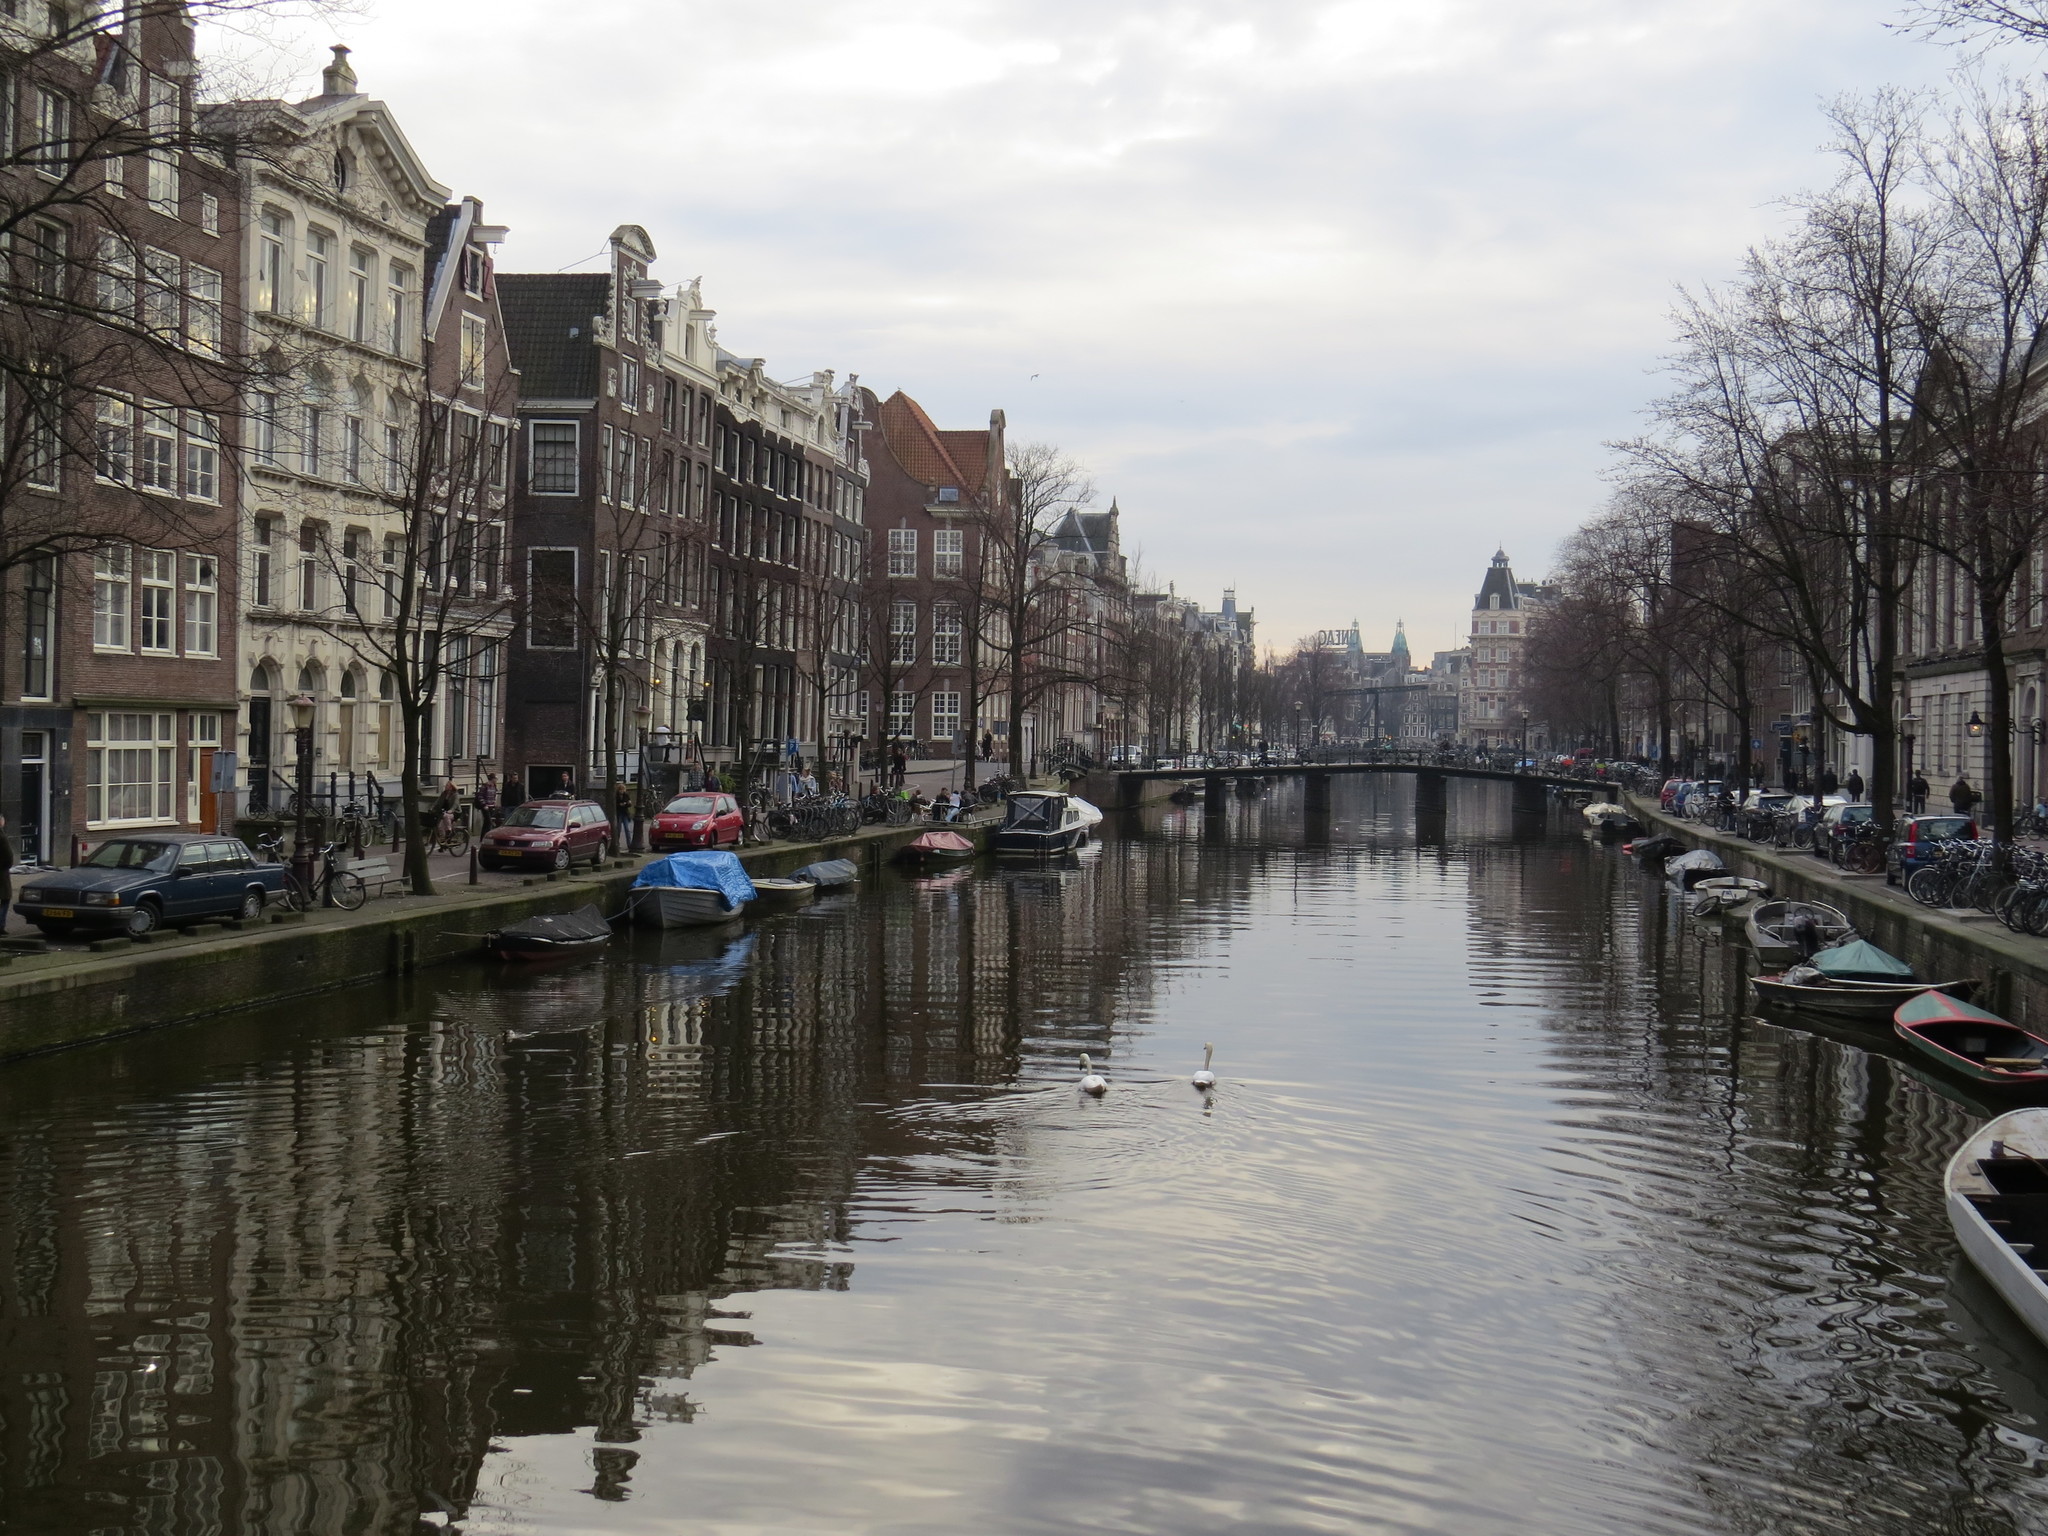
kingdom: Animalia
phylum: Chordata
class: Aves
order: Anseriformes
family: Anatidae
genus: Cygnus
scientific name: Cygnus olor
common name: Mute swan
